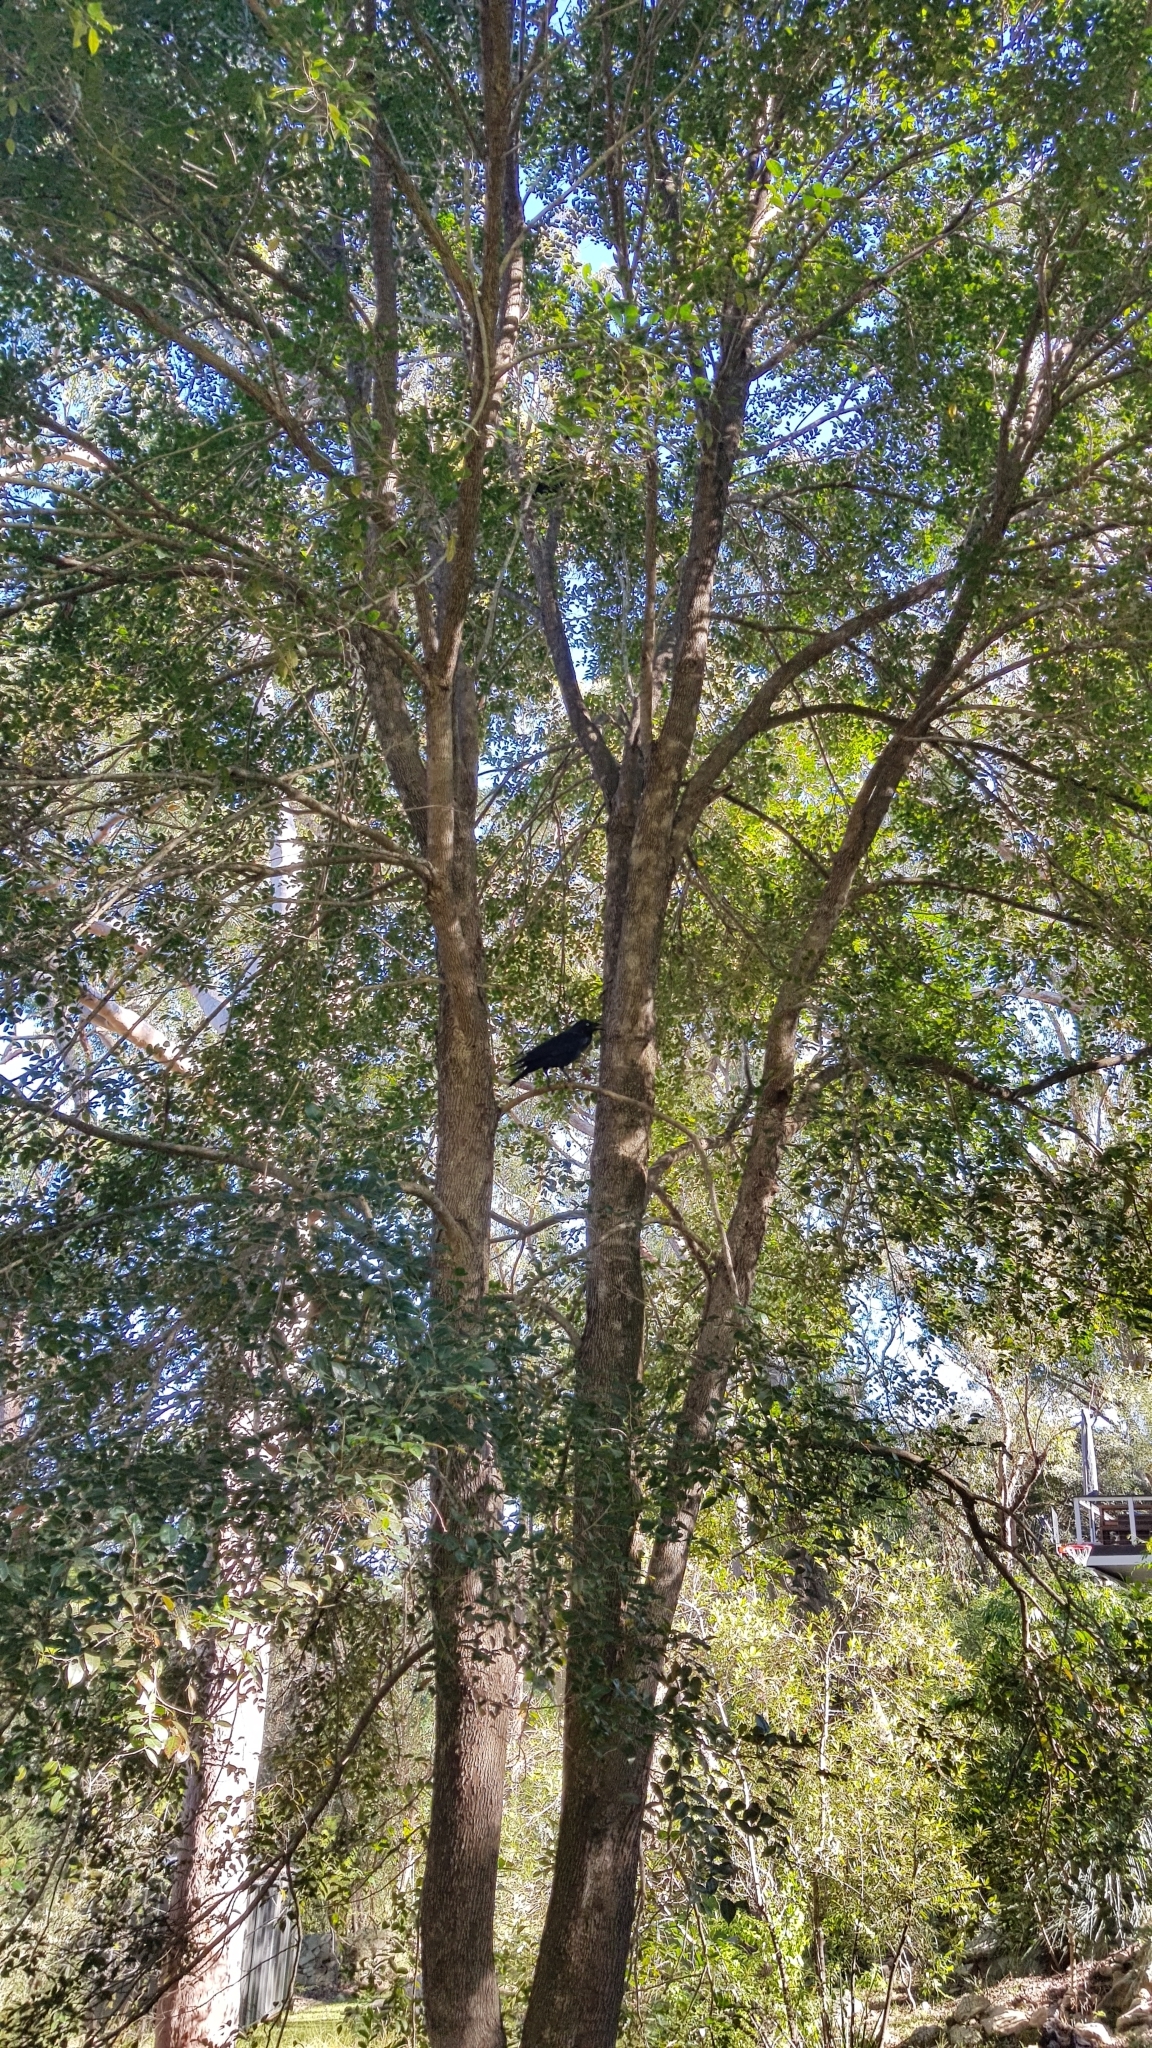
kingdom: Animalia
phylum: Chordata
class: Aves
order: Passeriformes
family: Corvidae
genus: Corvus
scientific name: Corvus coronoides
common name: Australian raven
